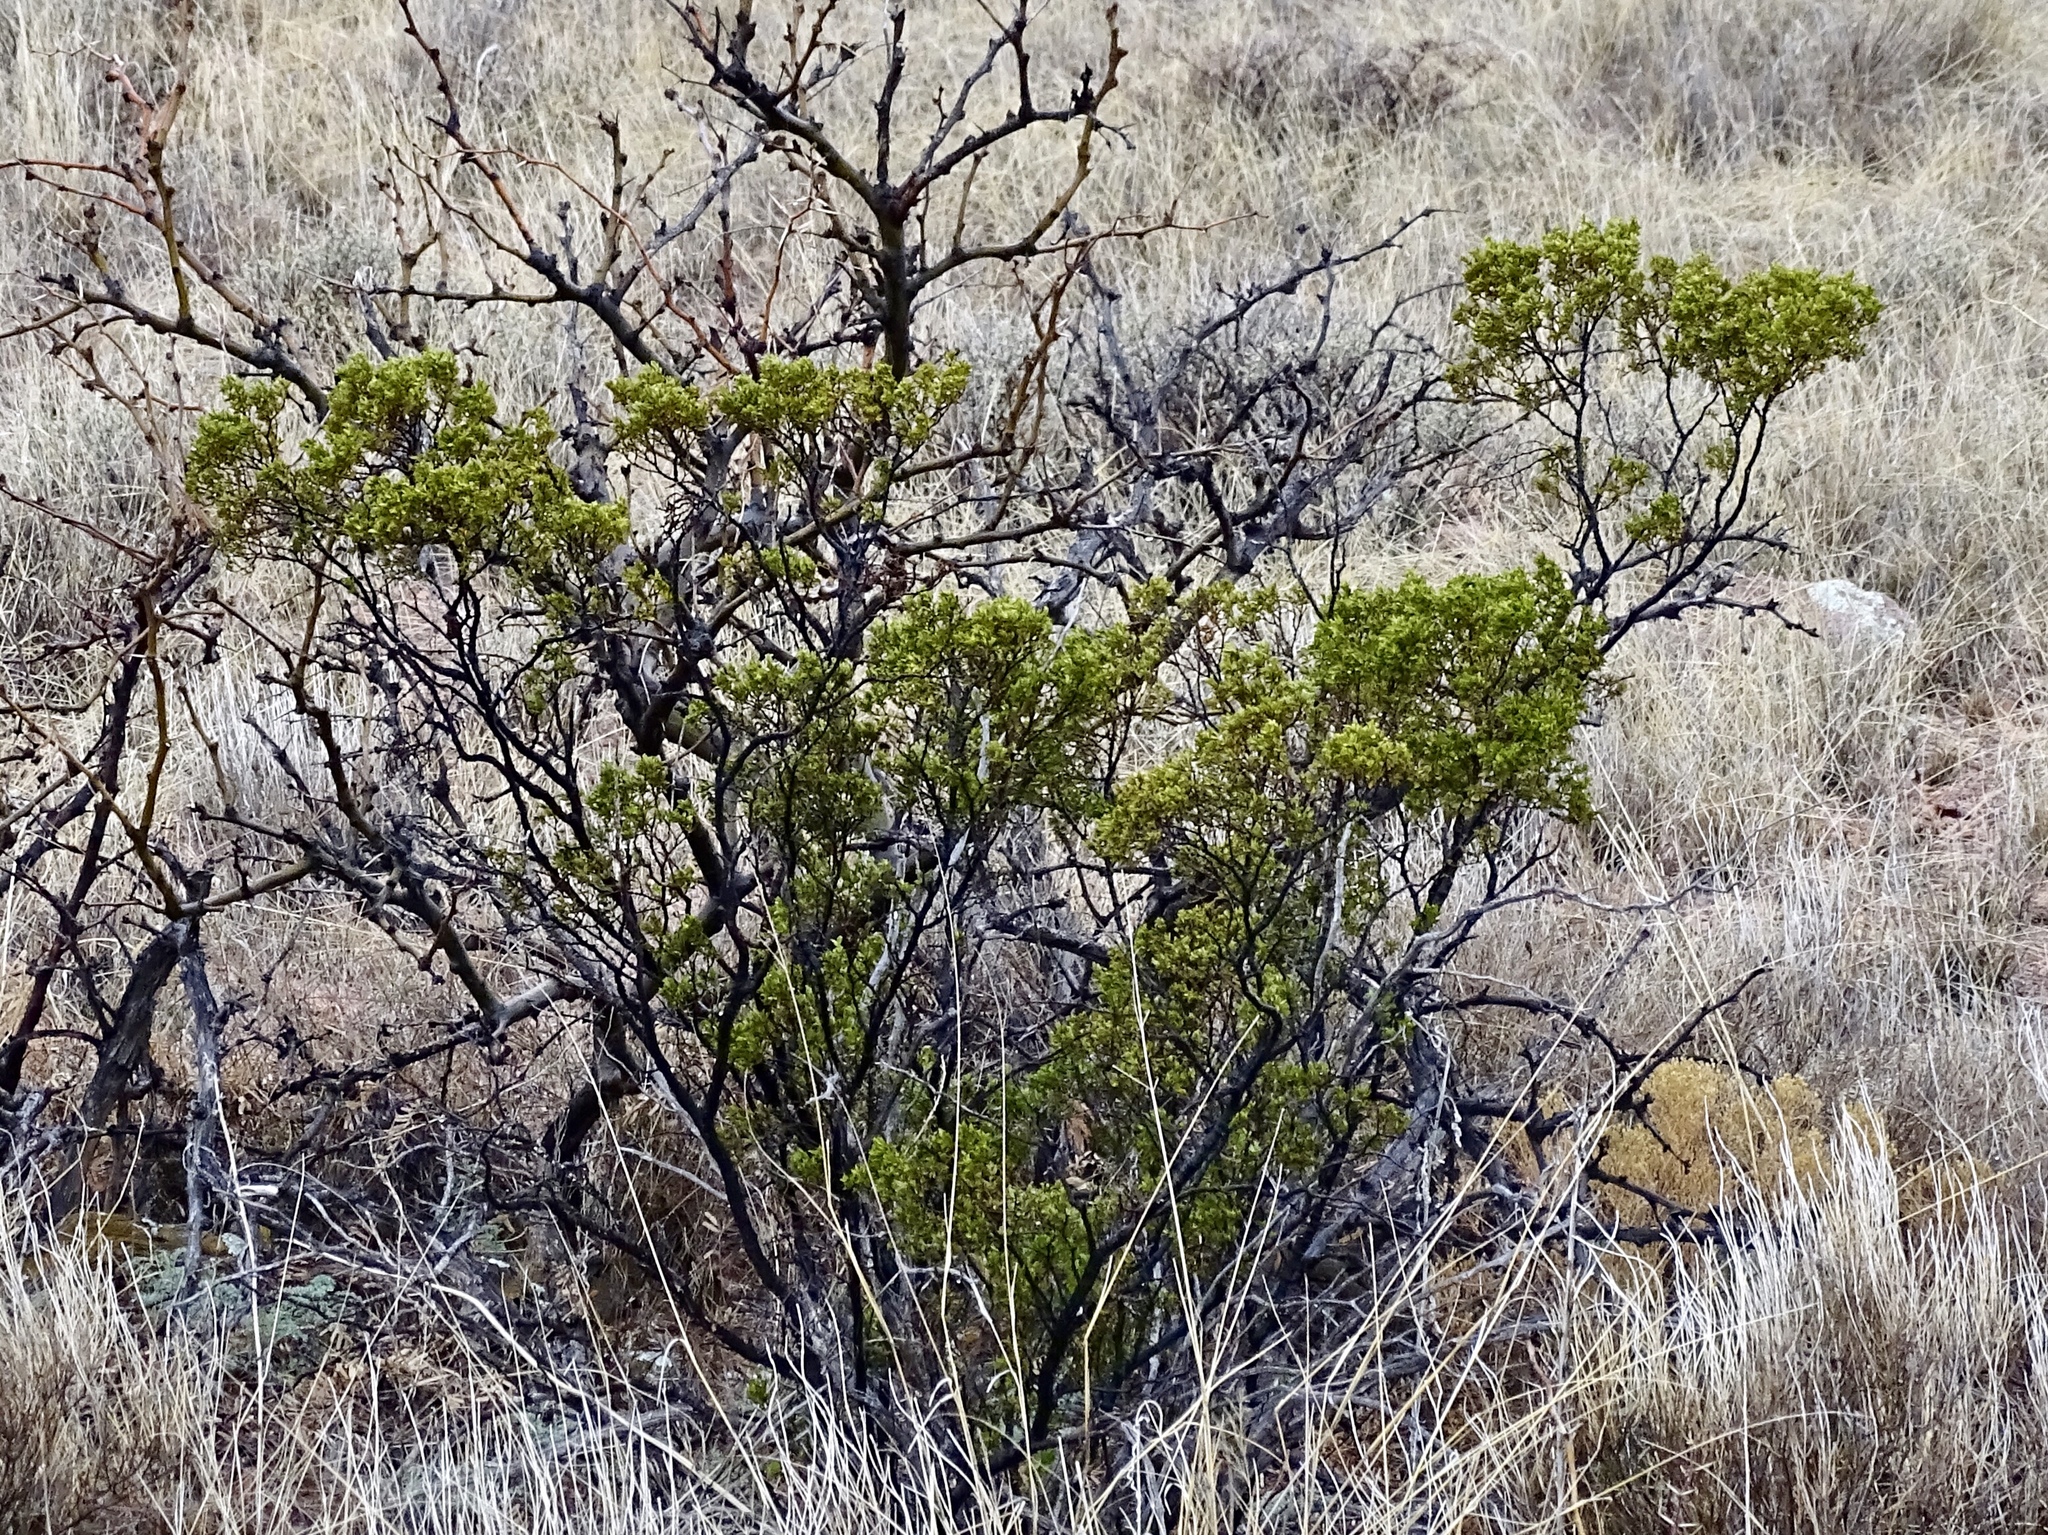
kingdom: Plantae
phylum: Tracheophyta
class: Magnoliopsida
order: Zygophyllales
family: Zygophyllaceae
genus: Larrea
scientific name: Larrea tridentata
